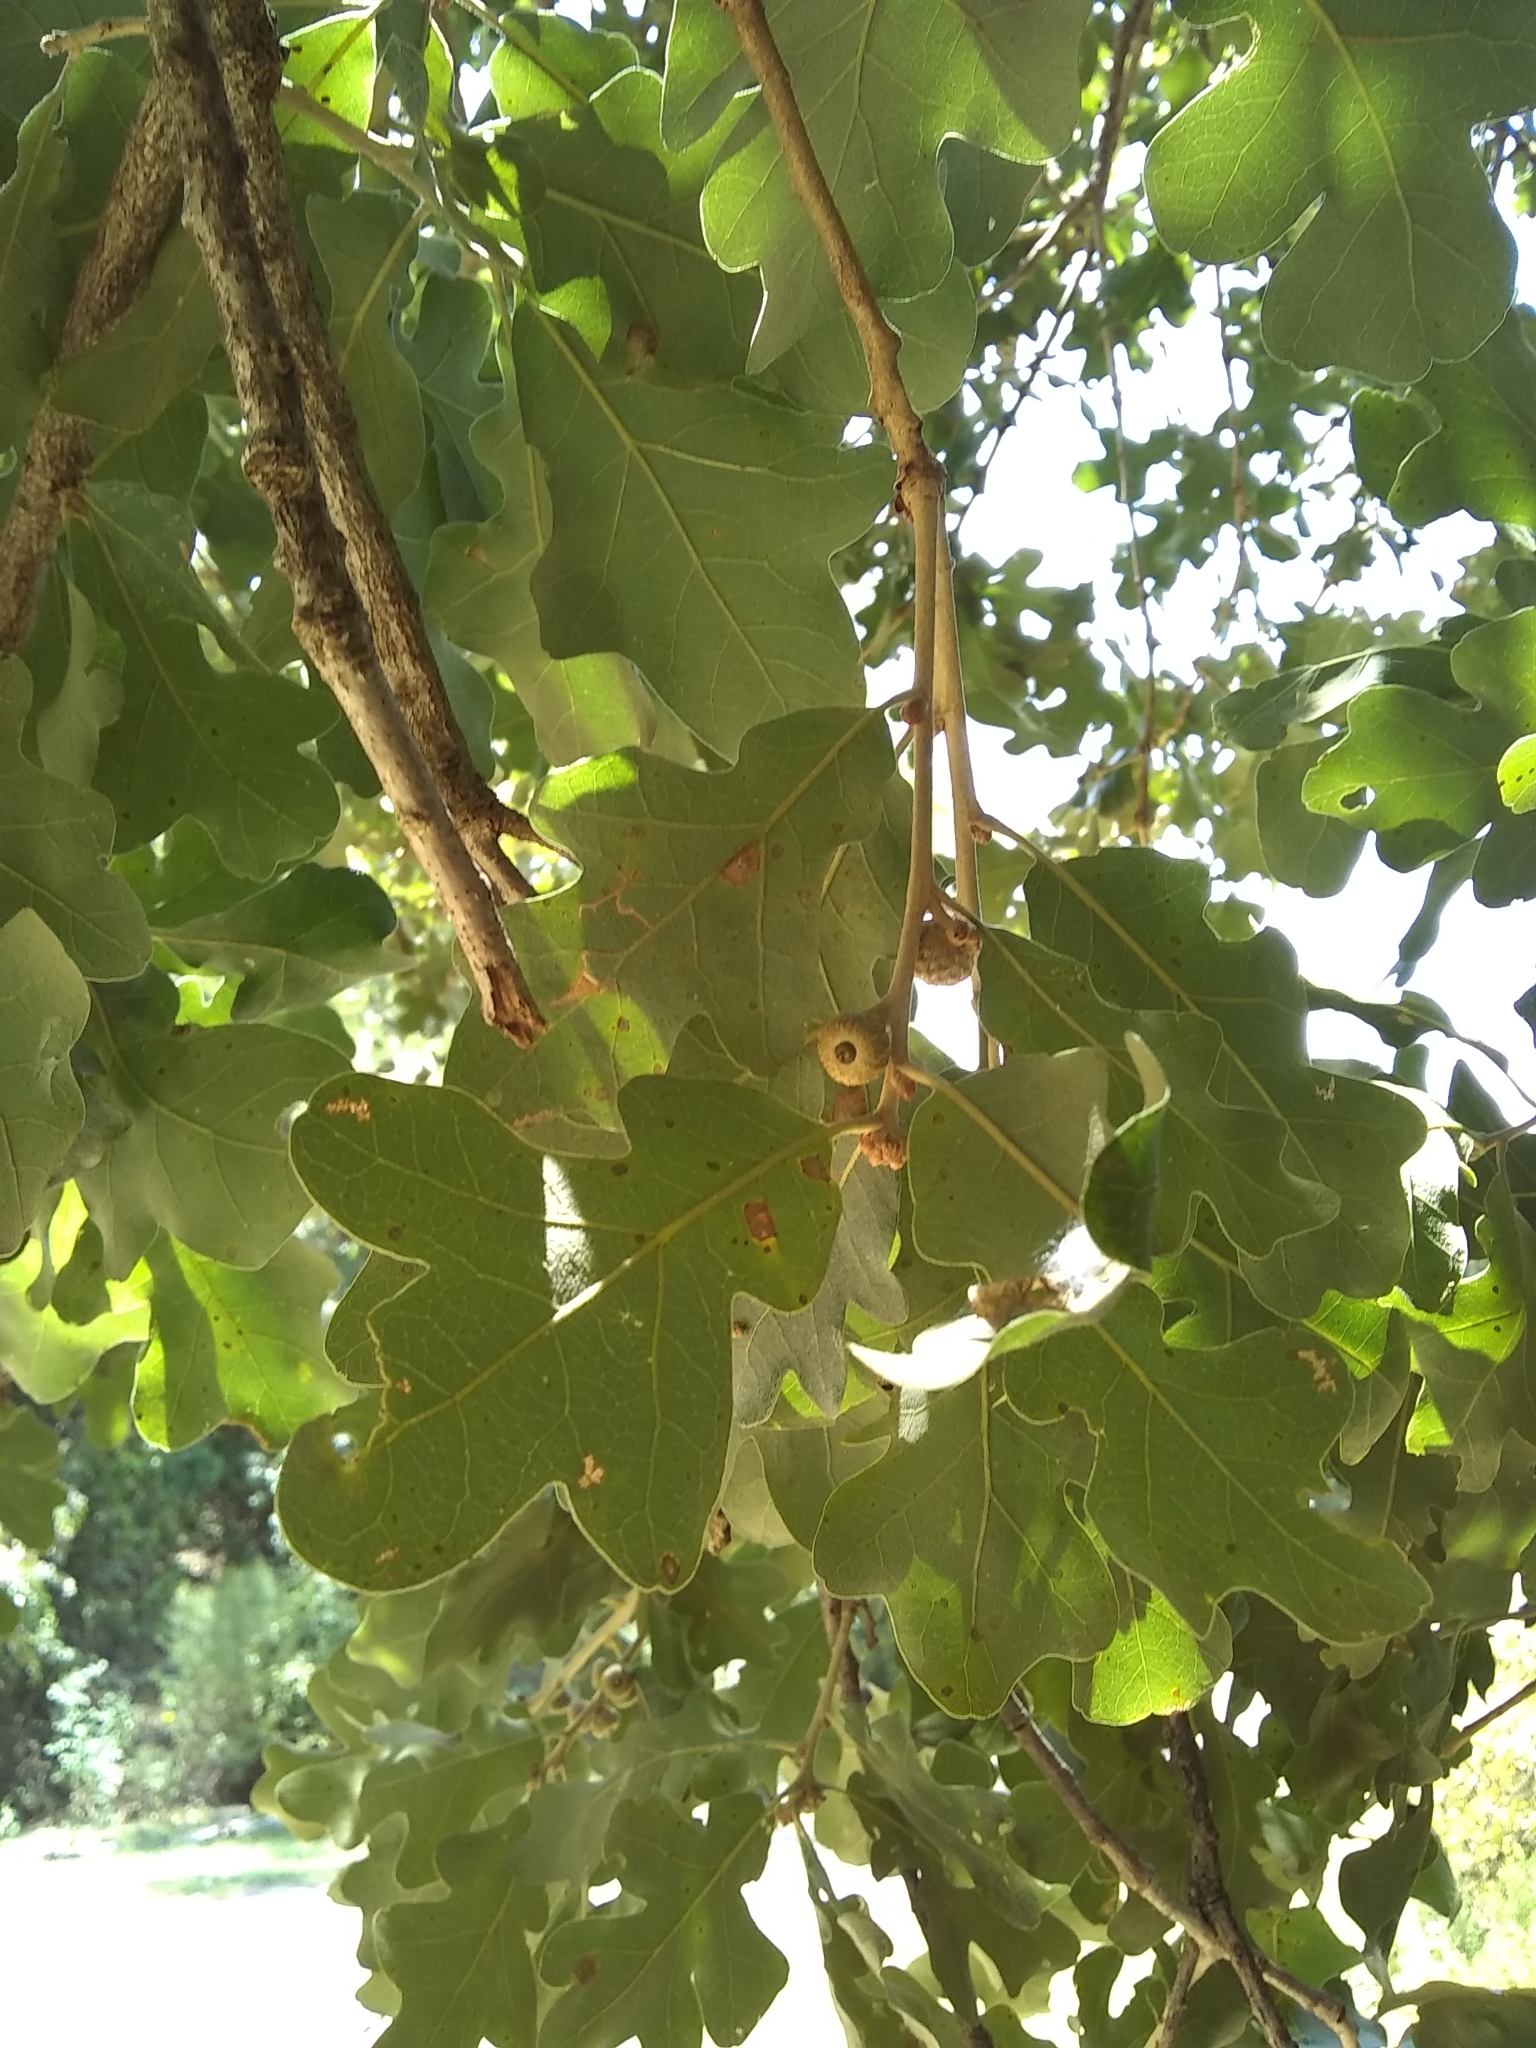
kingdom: Plantae
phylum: Tracheophyta
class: Magnoliopsida
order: Fagales
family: Fagaceae
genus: Quercus
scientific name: Quercus stellata
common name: Post oak
